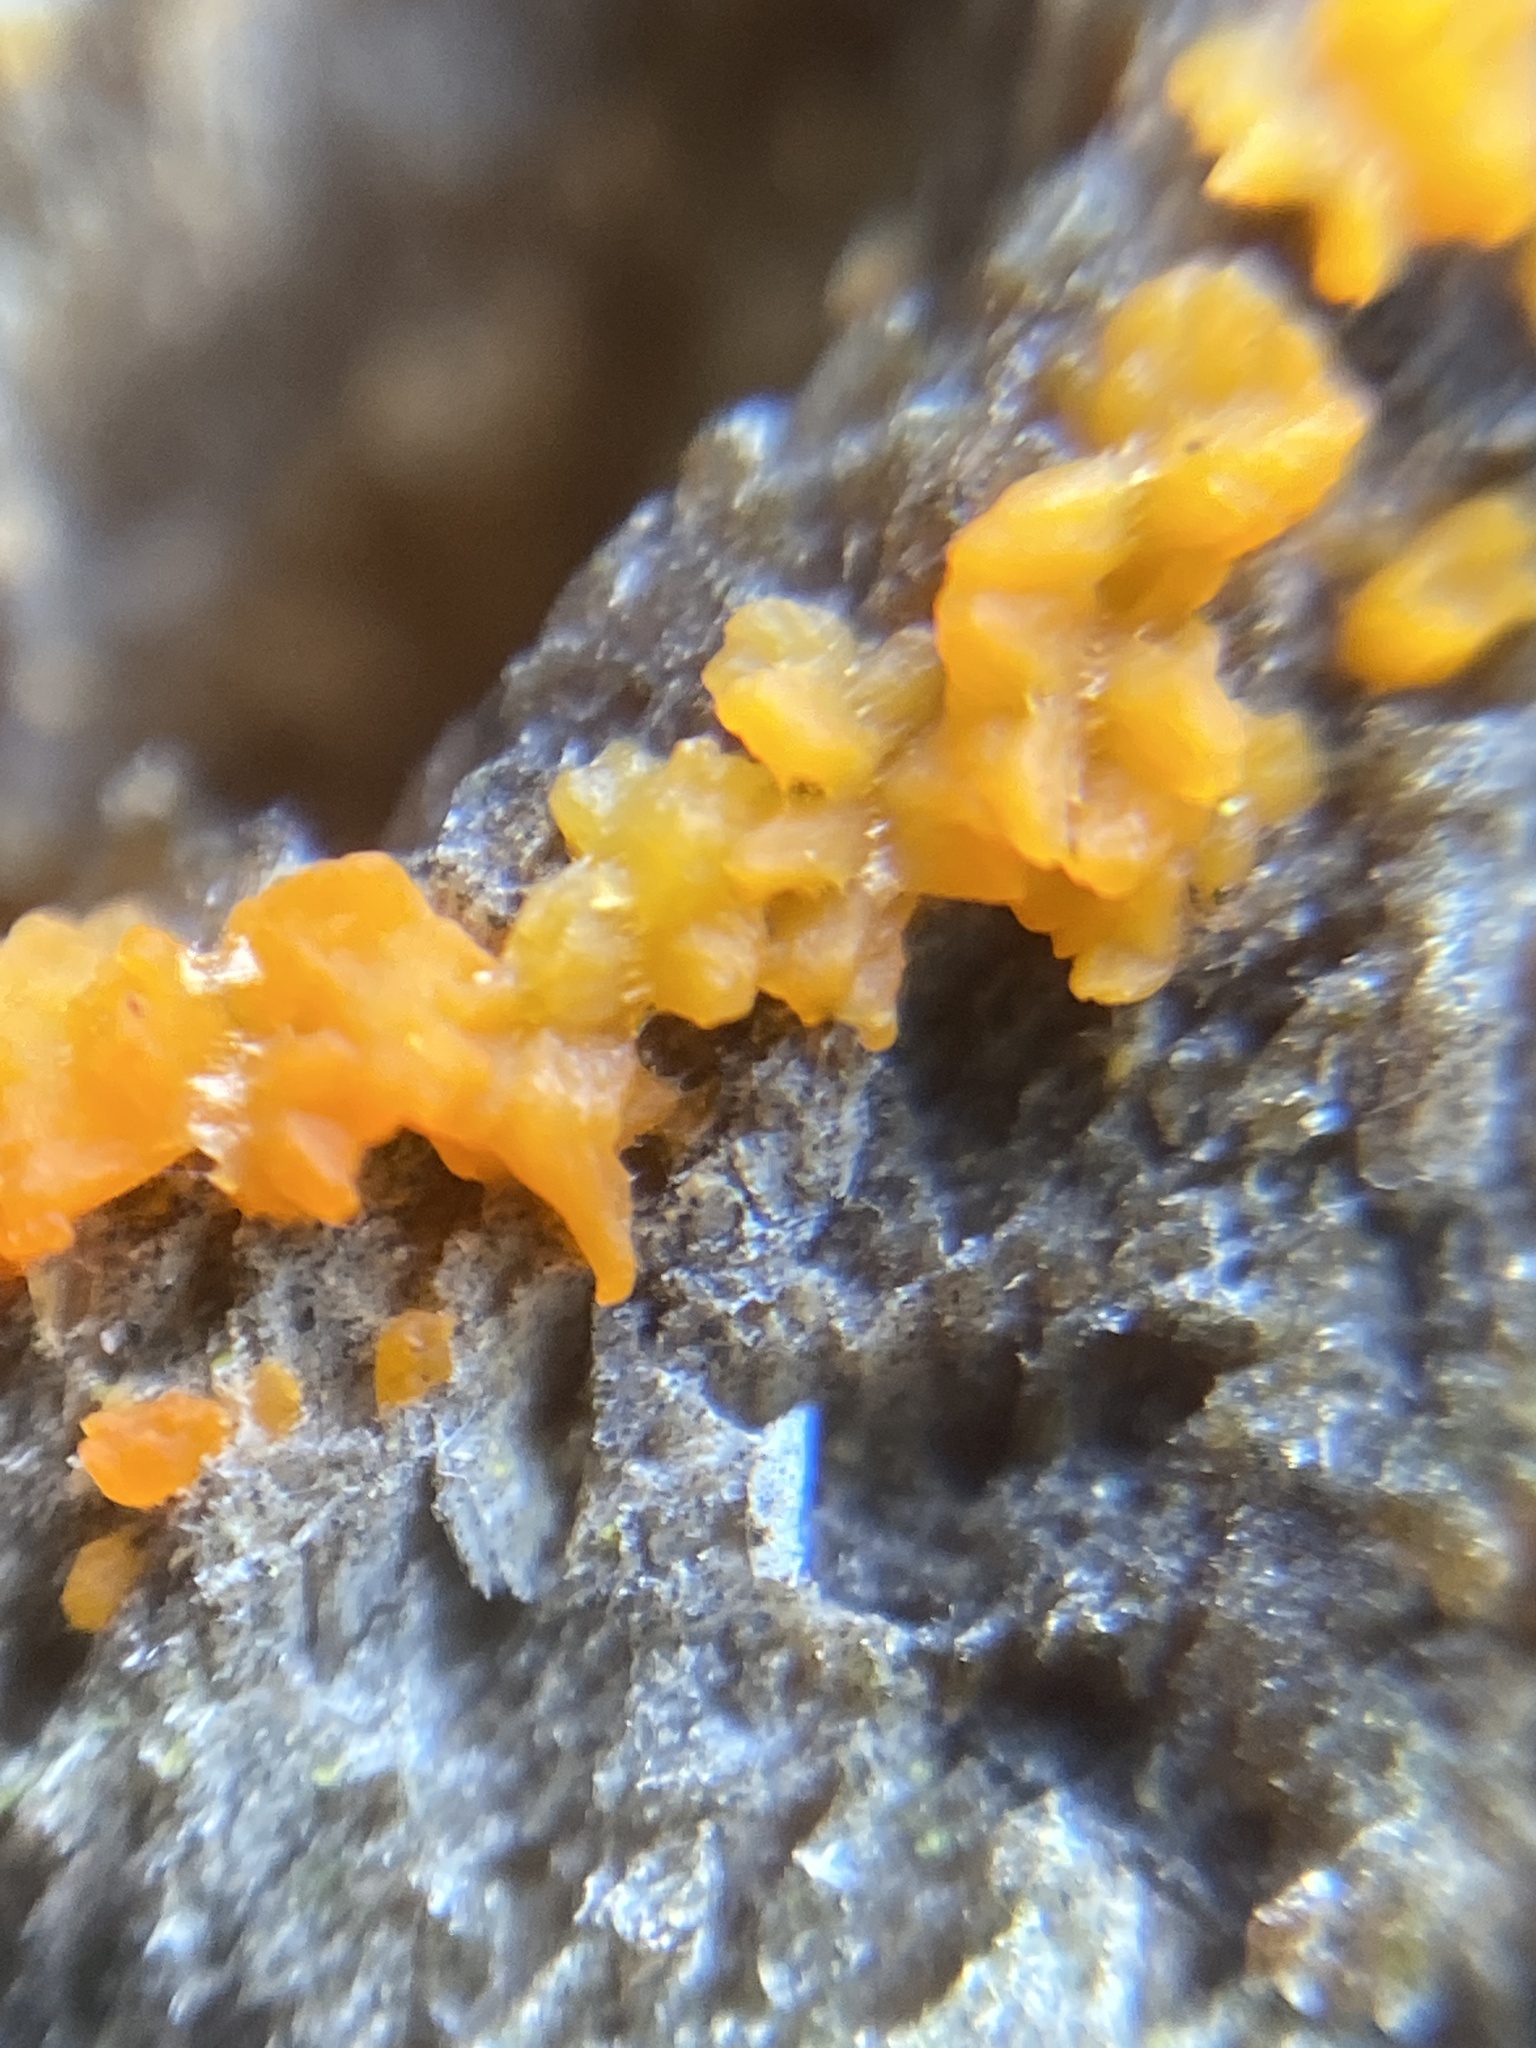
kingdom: Fungi
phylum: Basidiomycota
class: Dacrymycetes
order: Dacrymycetales
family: Dacrymycetaceae
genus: Dacrymyces
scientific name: Dacrymyces stillatus
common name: Common jelly spot
